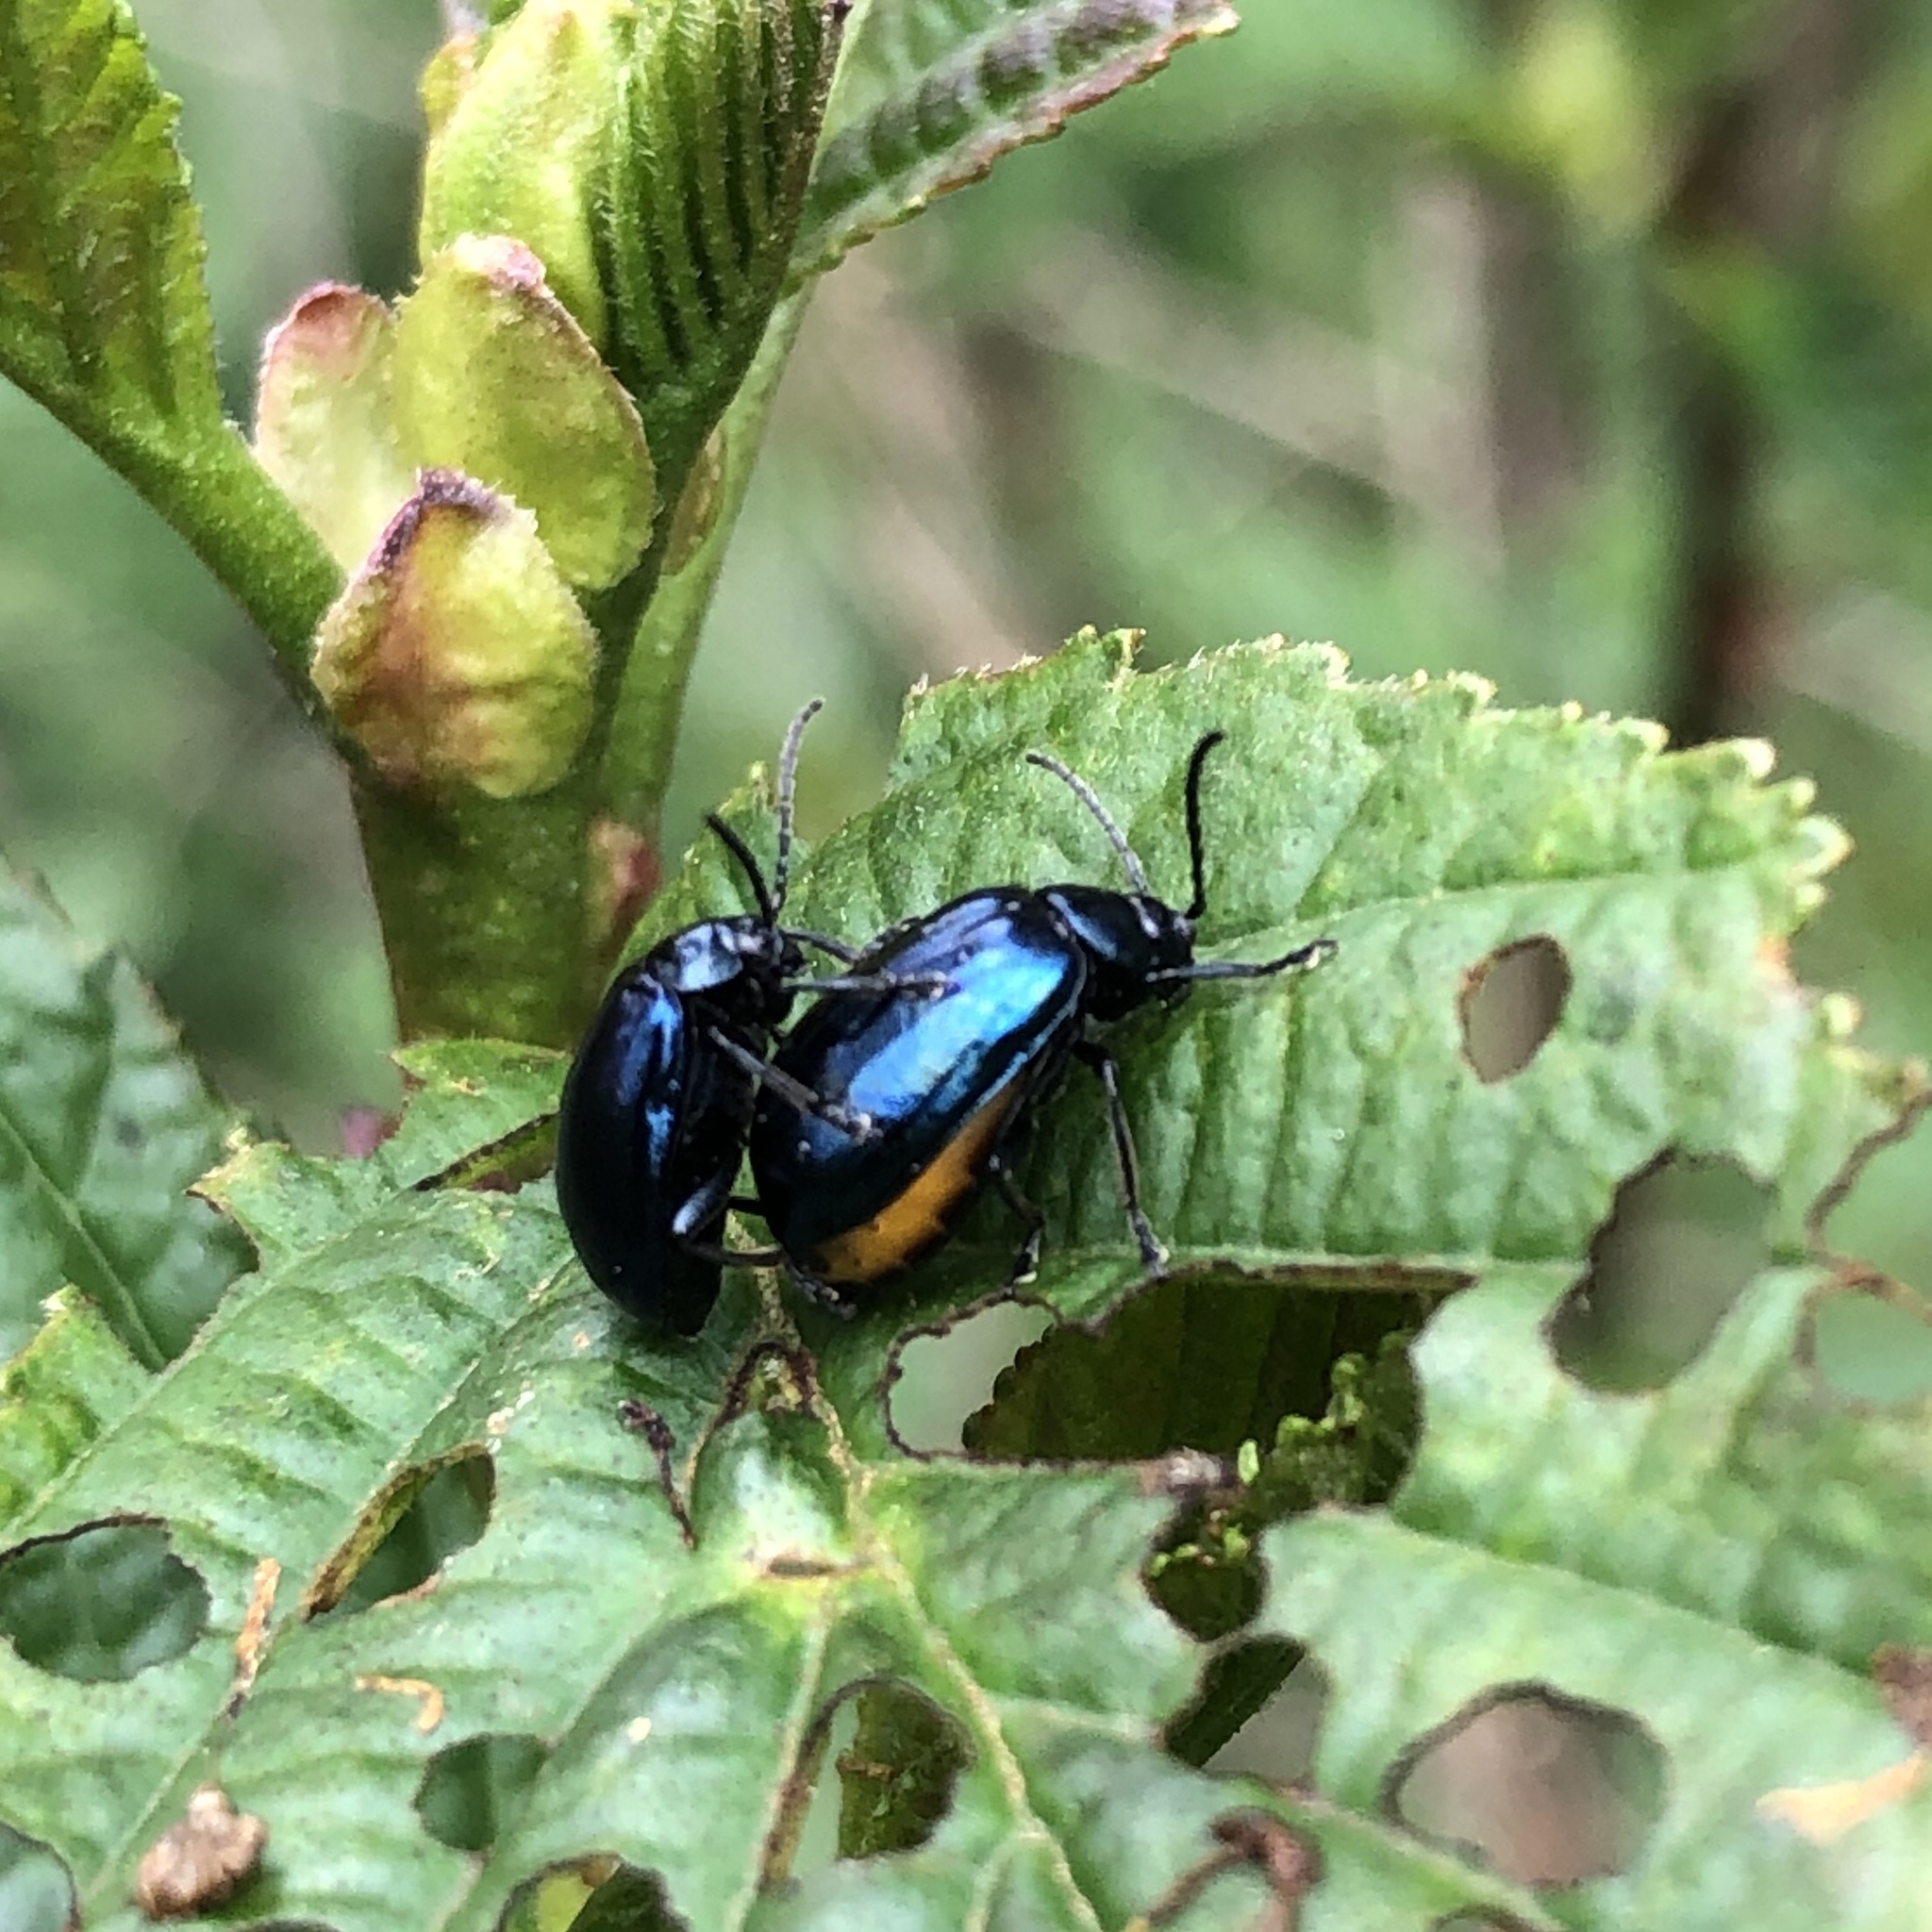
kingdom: Animalia
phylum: Arthropoda
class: Insecta
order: Coleoptera
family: Chrysomelidae
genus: Agelastica
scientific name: Agelastica alni
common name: Alder leaf beetle
